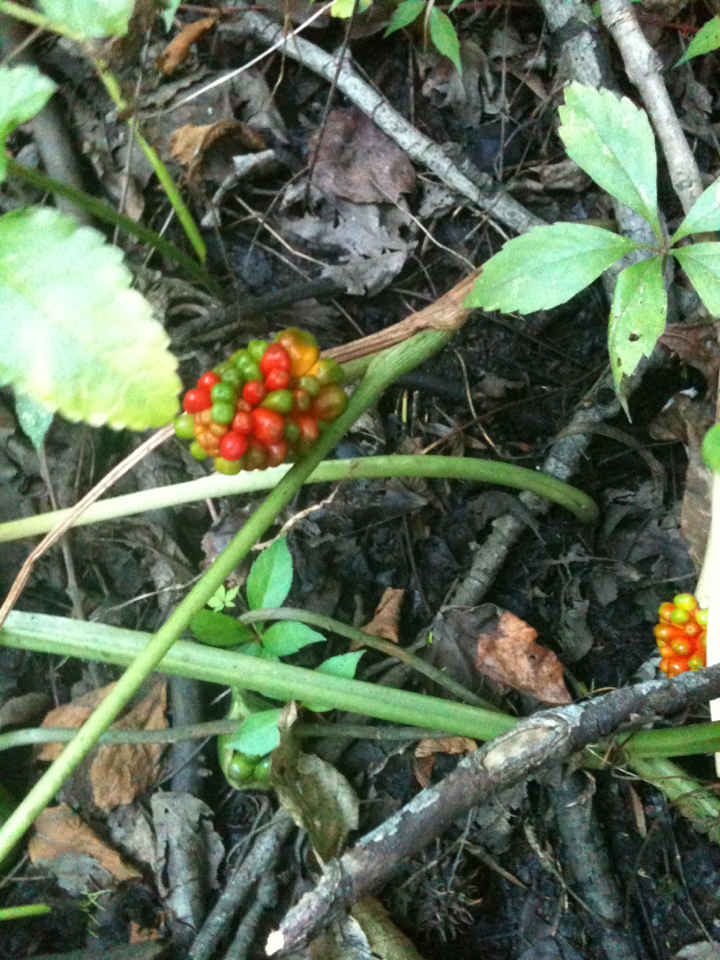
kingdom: Plantae
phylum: Tracheophyta
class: Liliopsida
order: Alismatales
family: Araceae
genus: Arisaema
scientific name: Arisaema triphyllum
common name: Jack-in-the-pulpit
